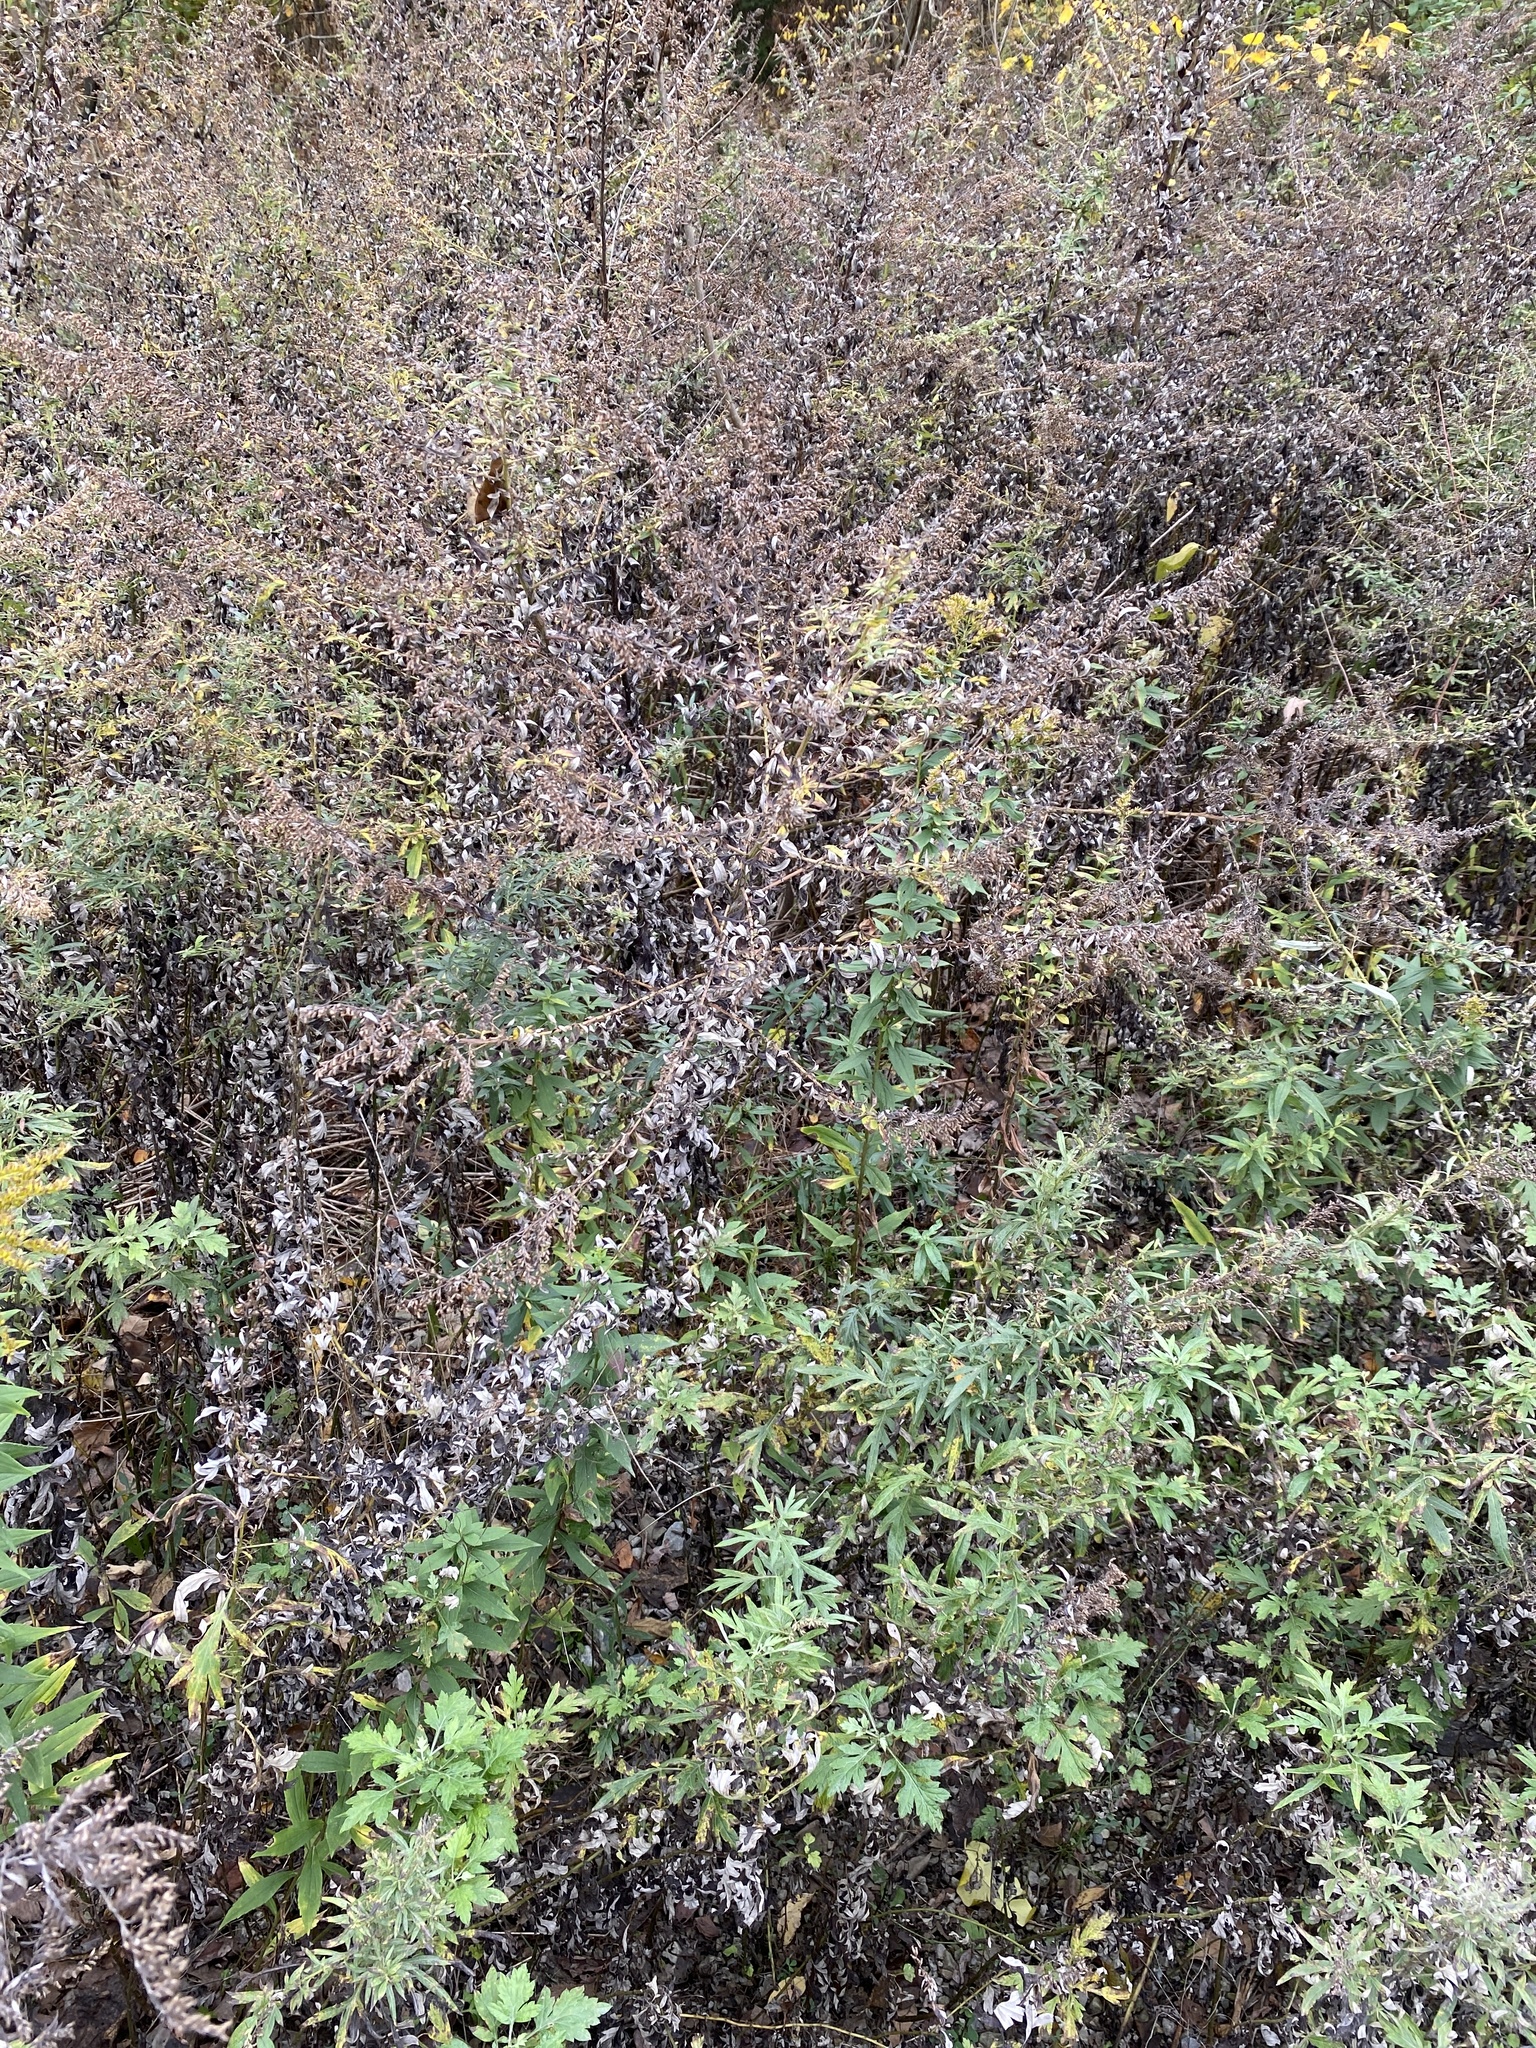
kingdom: Plantae
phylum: Tracheophyta
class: Magnoliopsida
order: Asterales
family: Asteraceae
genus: Artemisia
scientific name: Artemisia vulgaris
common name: Mugwort
